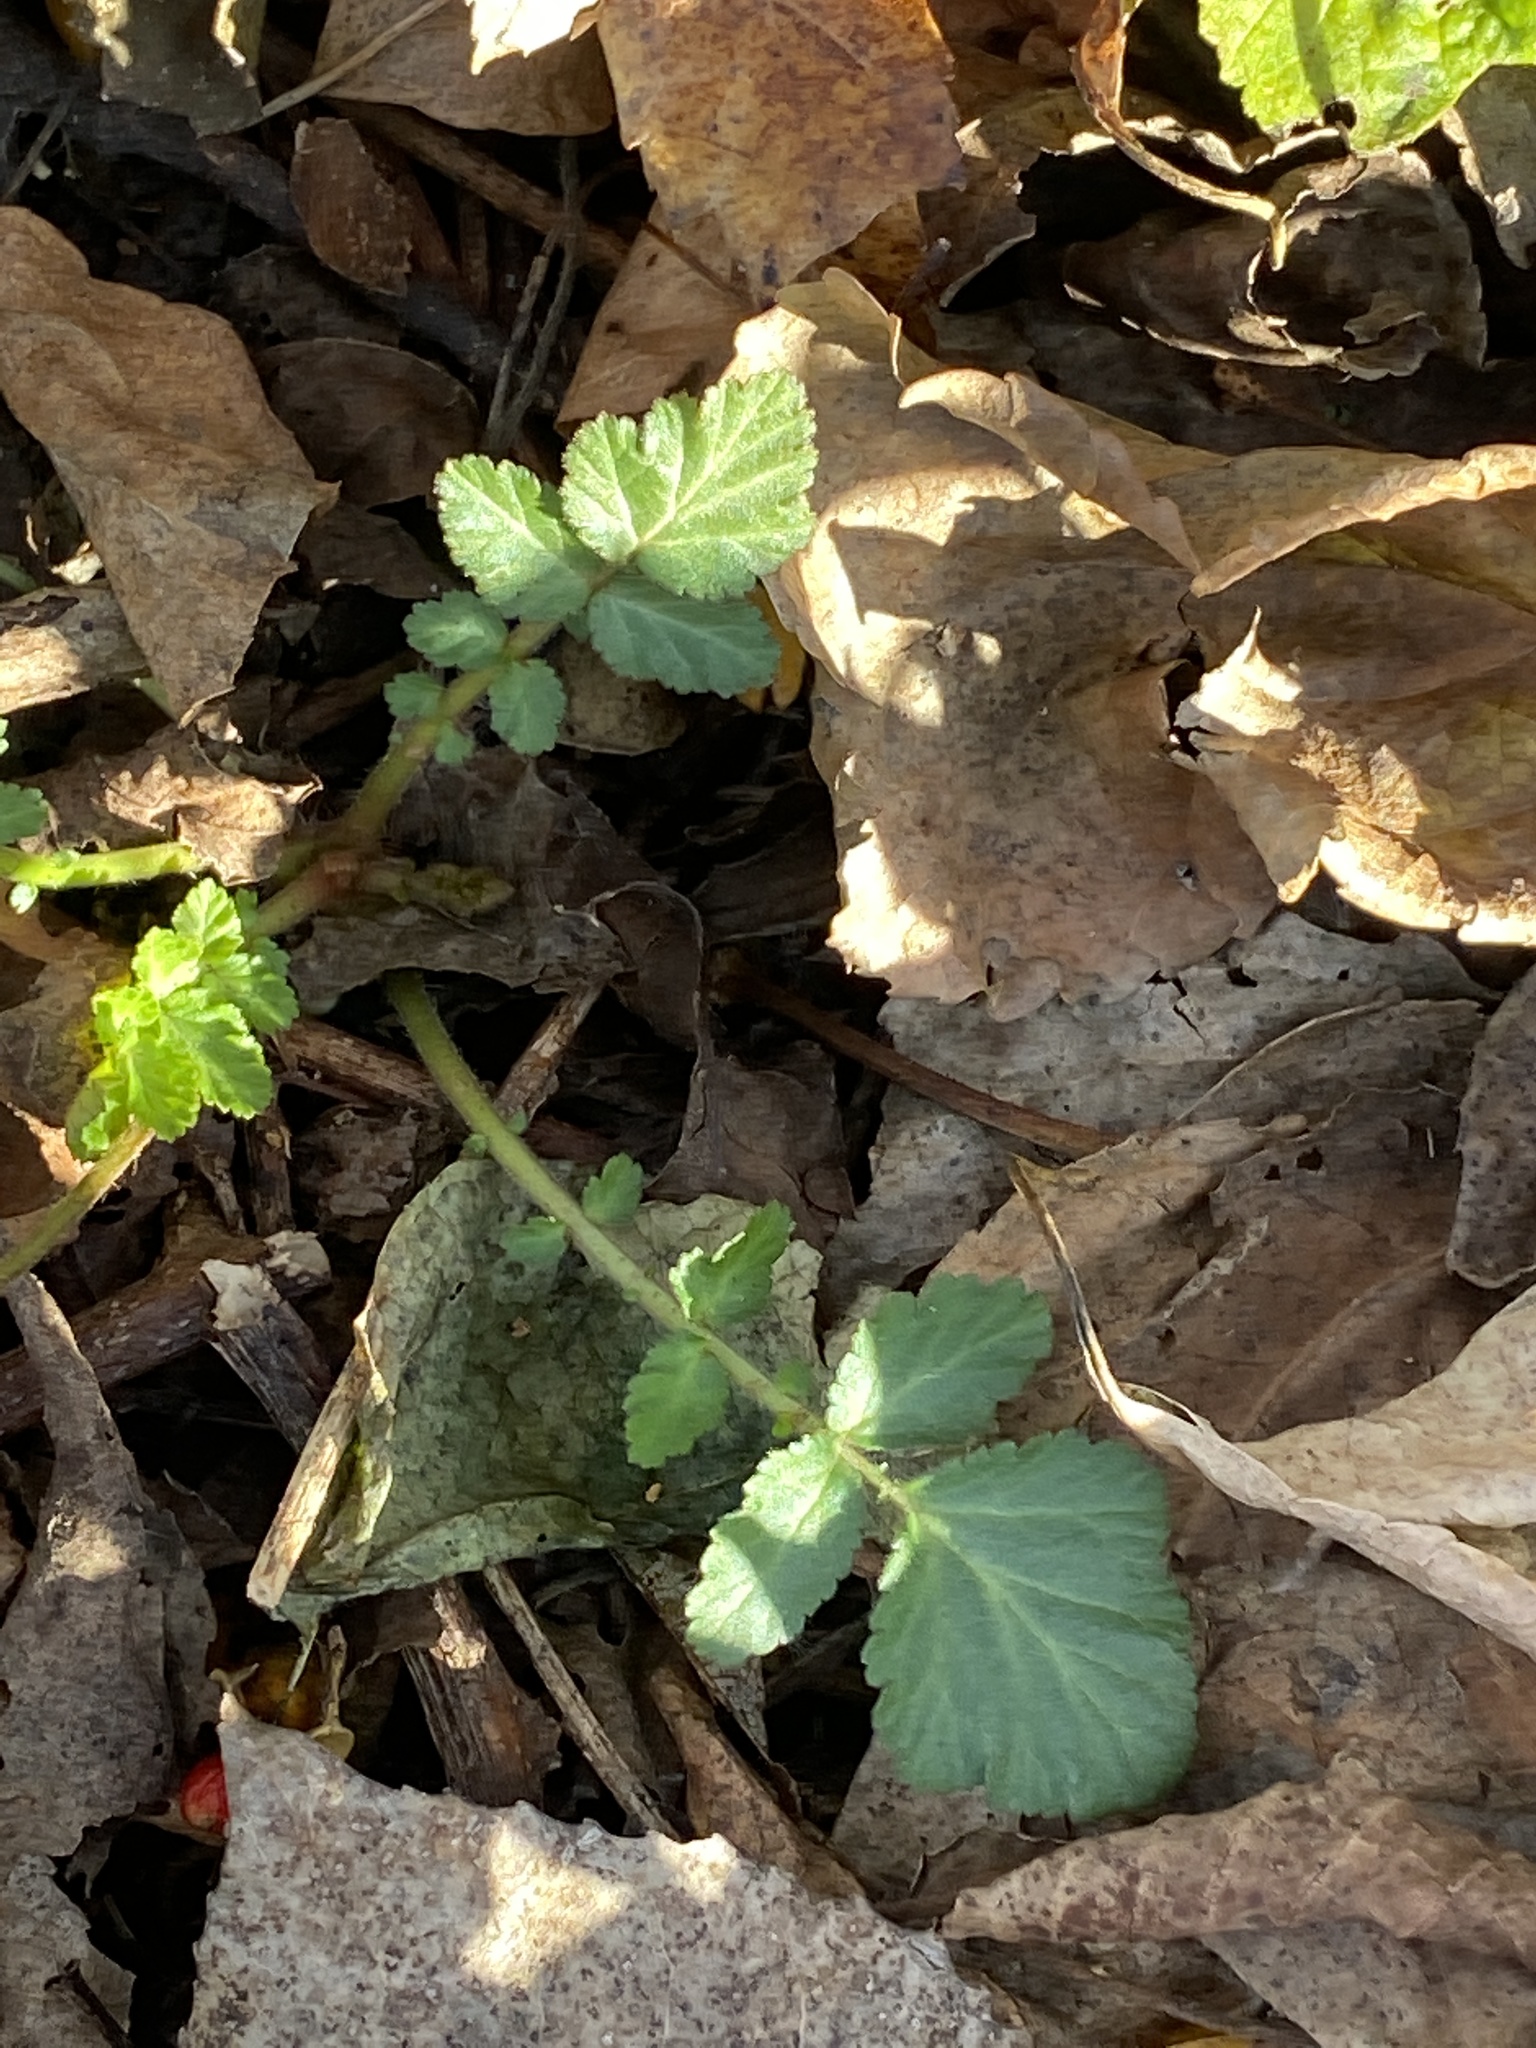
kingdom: Plantae
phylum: Tracheophyta
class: Magnoliopsida
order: Rosales
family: Rosaceae
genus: Geum
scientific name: Geum canadense
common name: White avens
